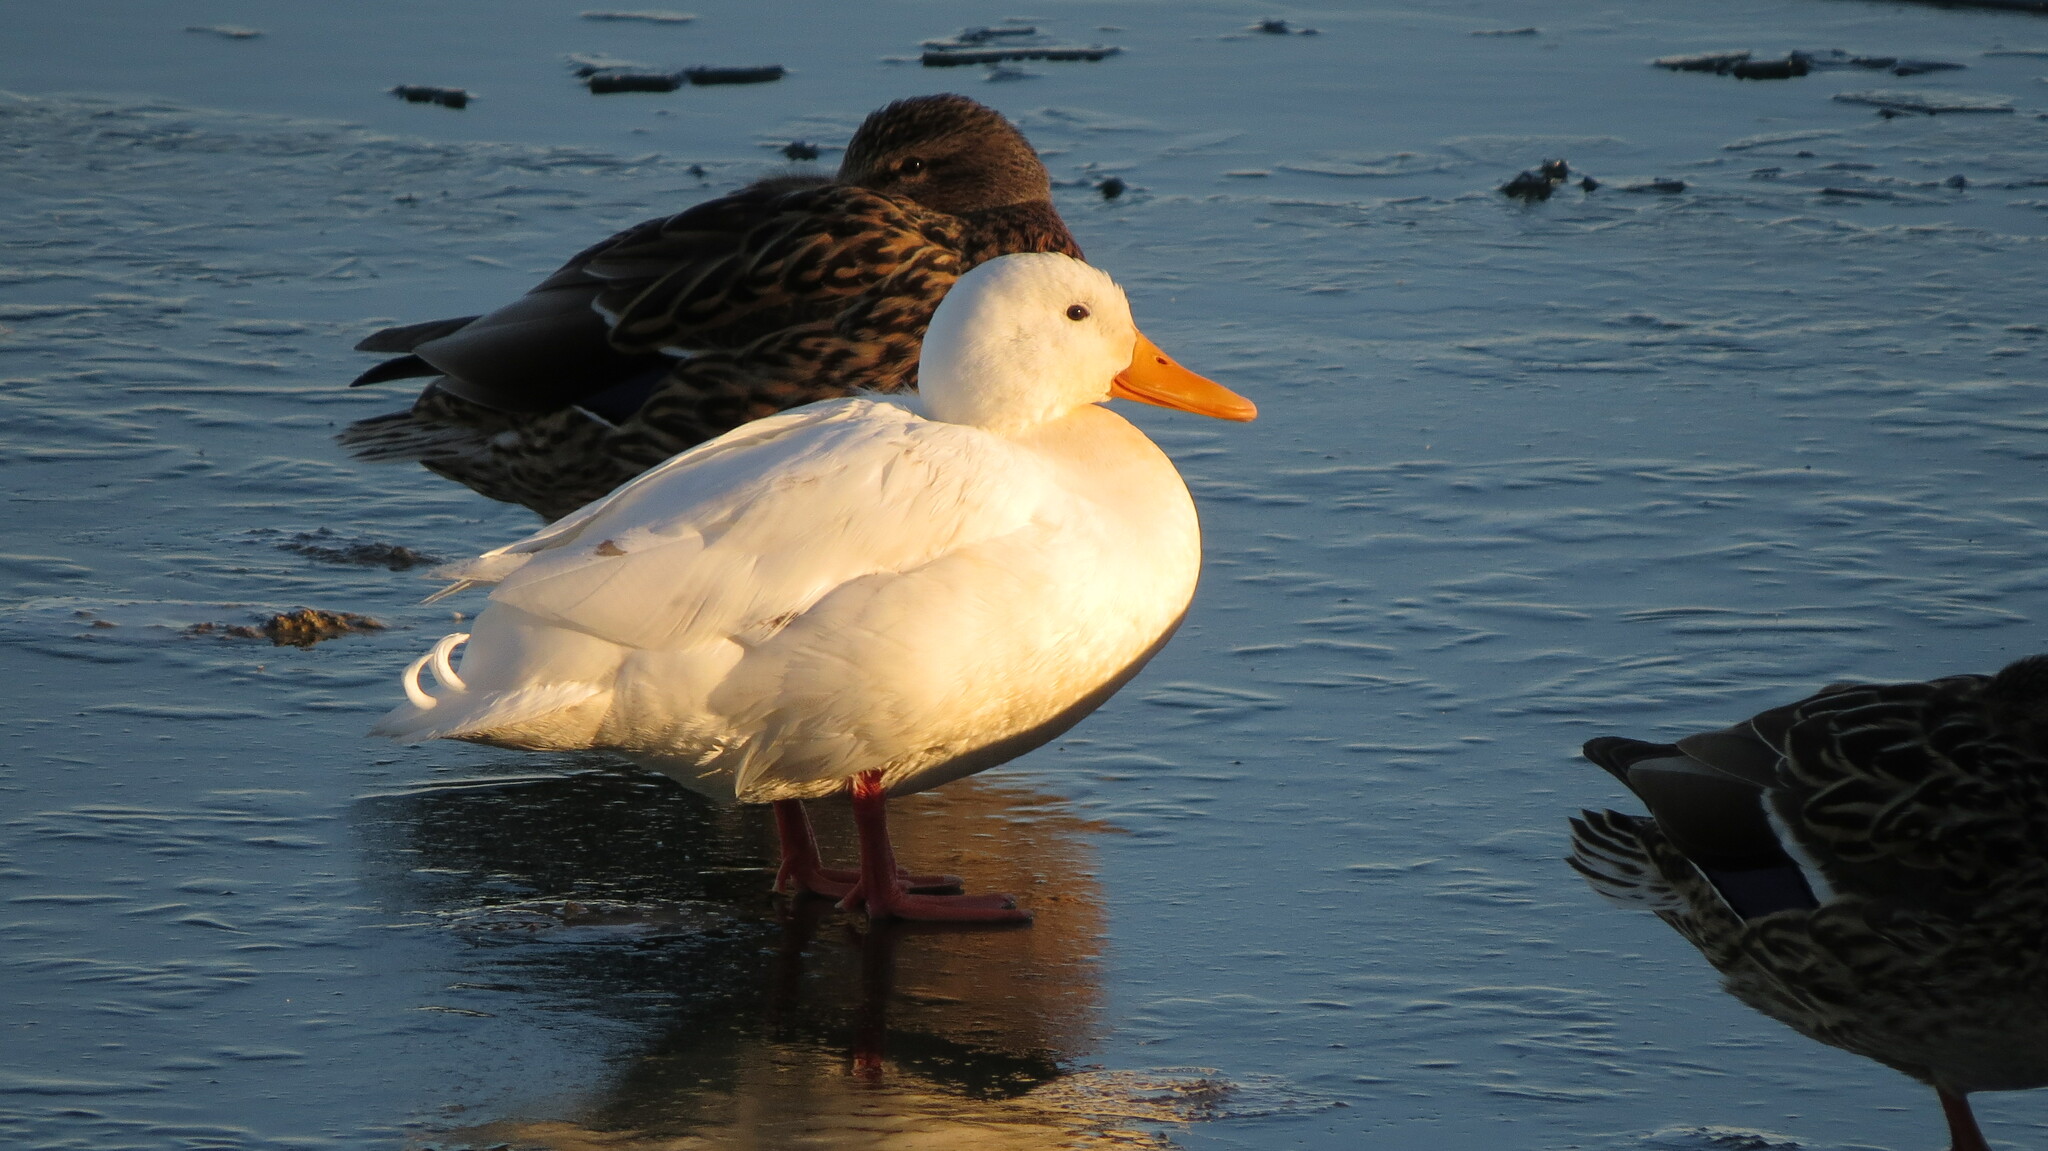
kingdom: Animalia
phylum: Chordata
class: Aves
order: Anseriformes
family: Anatidae
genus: Anas
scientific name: Anas platyrhynchos
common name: Mallard
